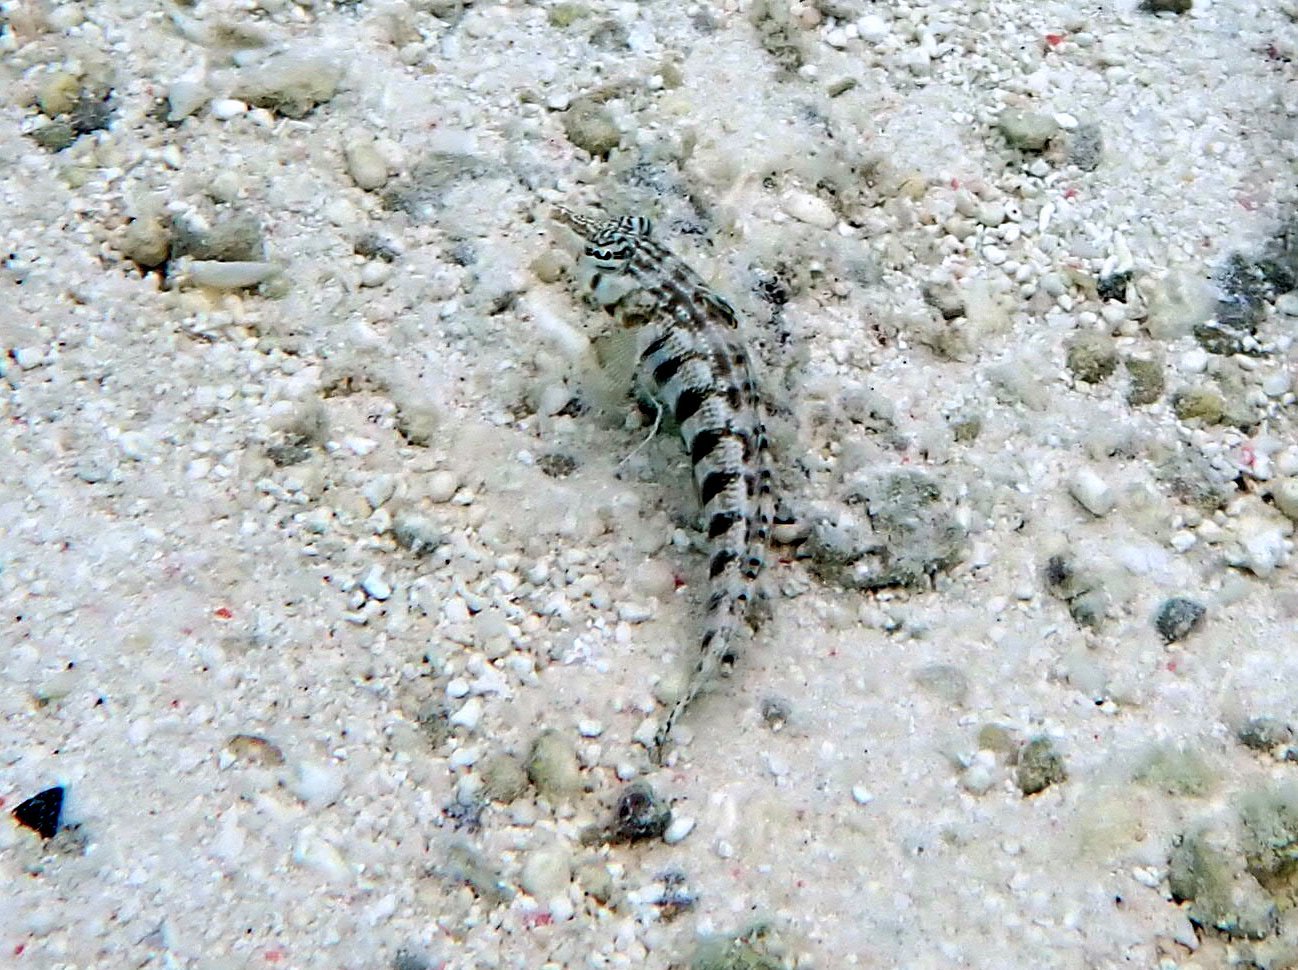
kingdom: Animalia
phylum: Chordata
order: Perciformes
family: Pinguipedidae
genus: Parapercis
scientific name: Parapercis australis
